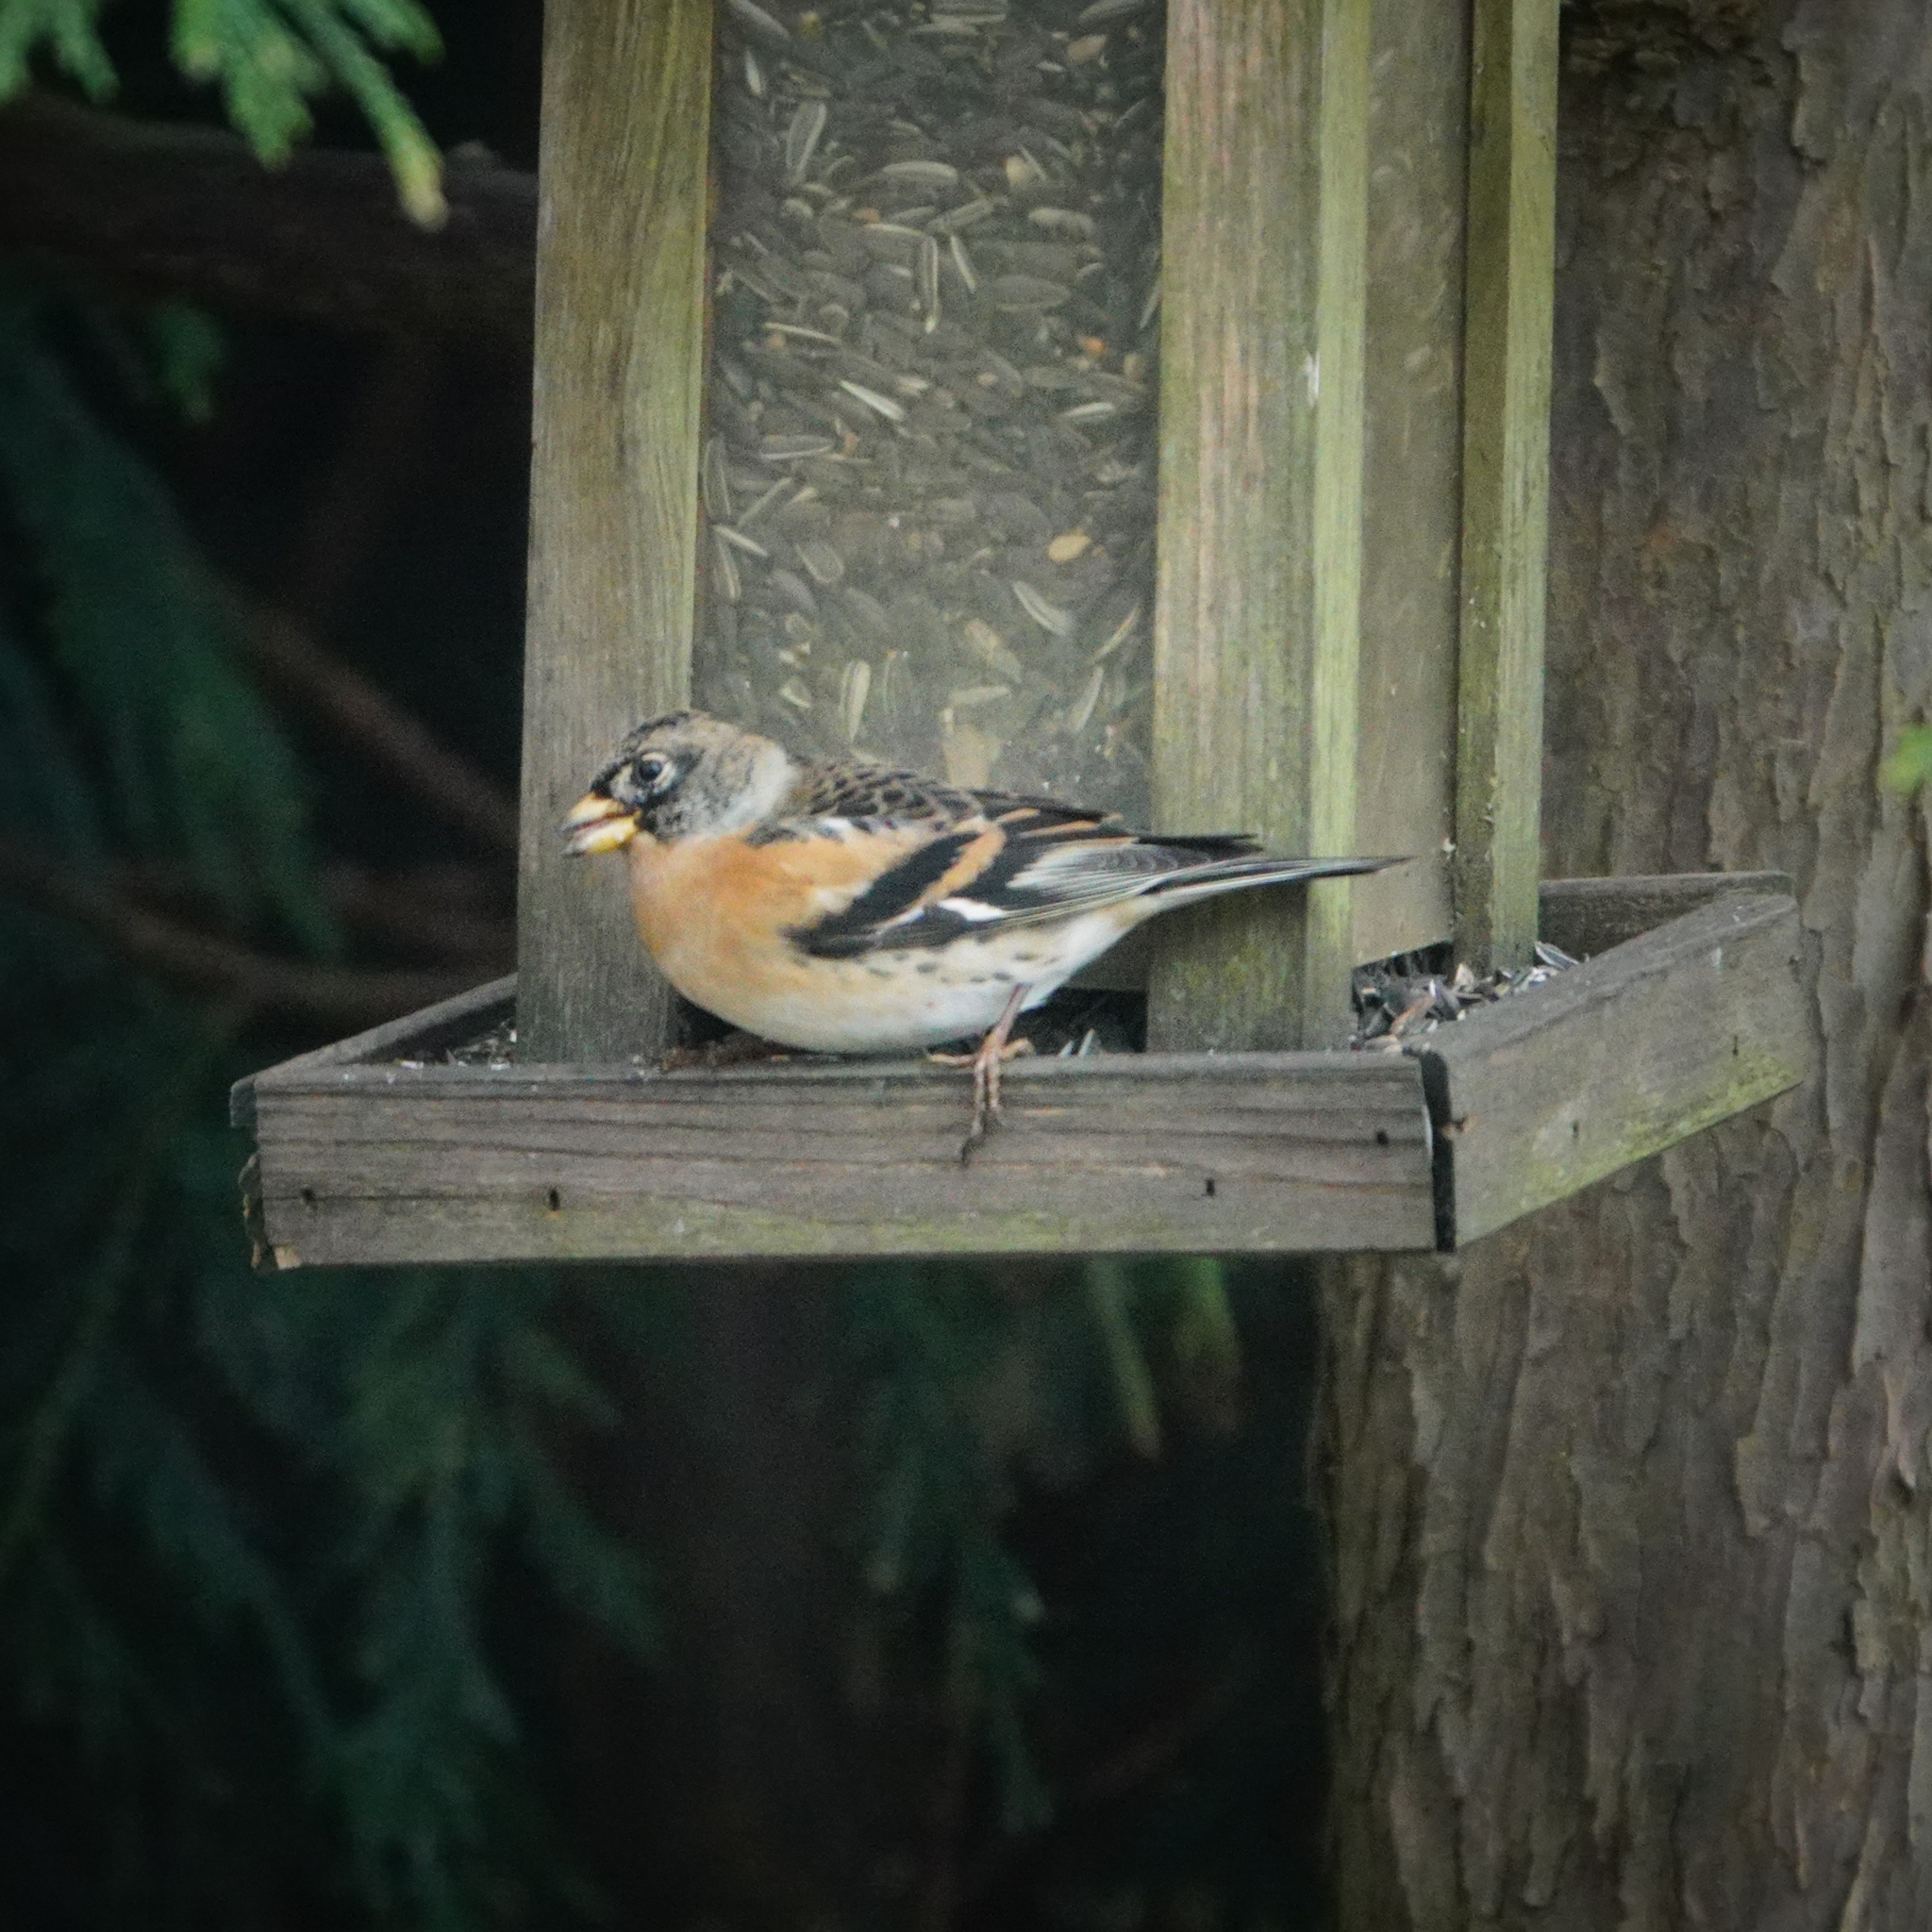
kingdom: Animalia
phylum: Chordata
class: Aves
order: Passeriformes
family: Fringillidae
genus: Fringilla
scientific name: Fringilla montifringilla
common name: Brambling
